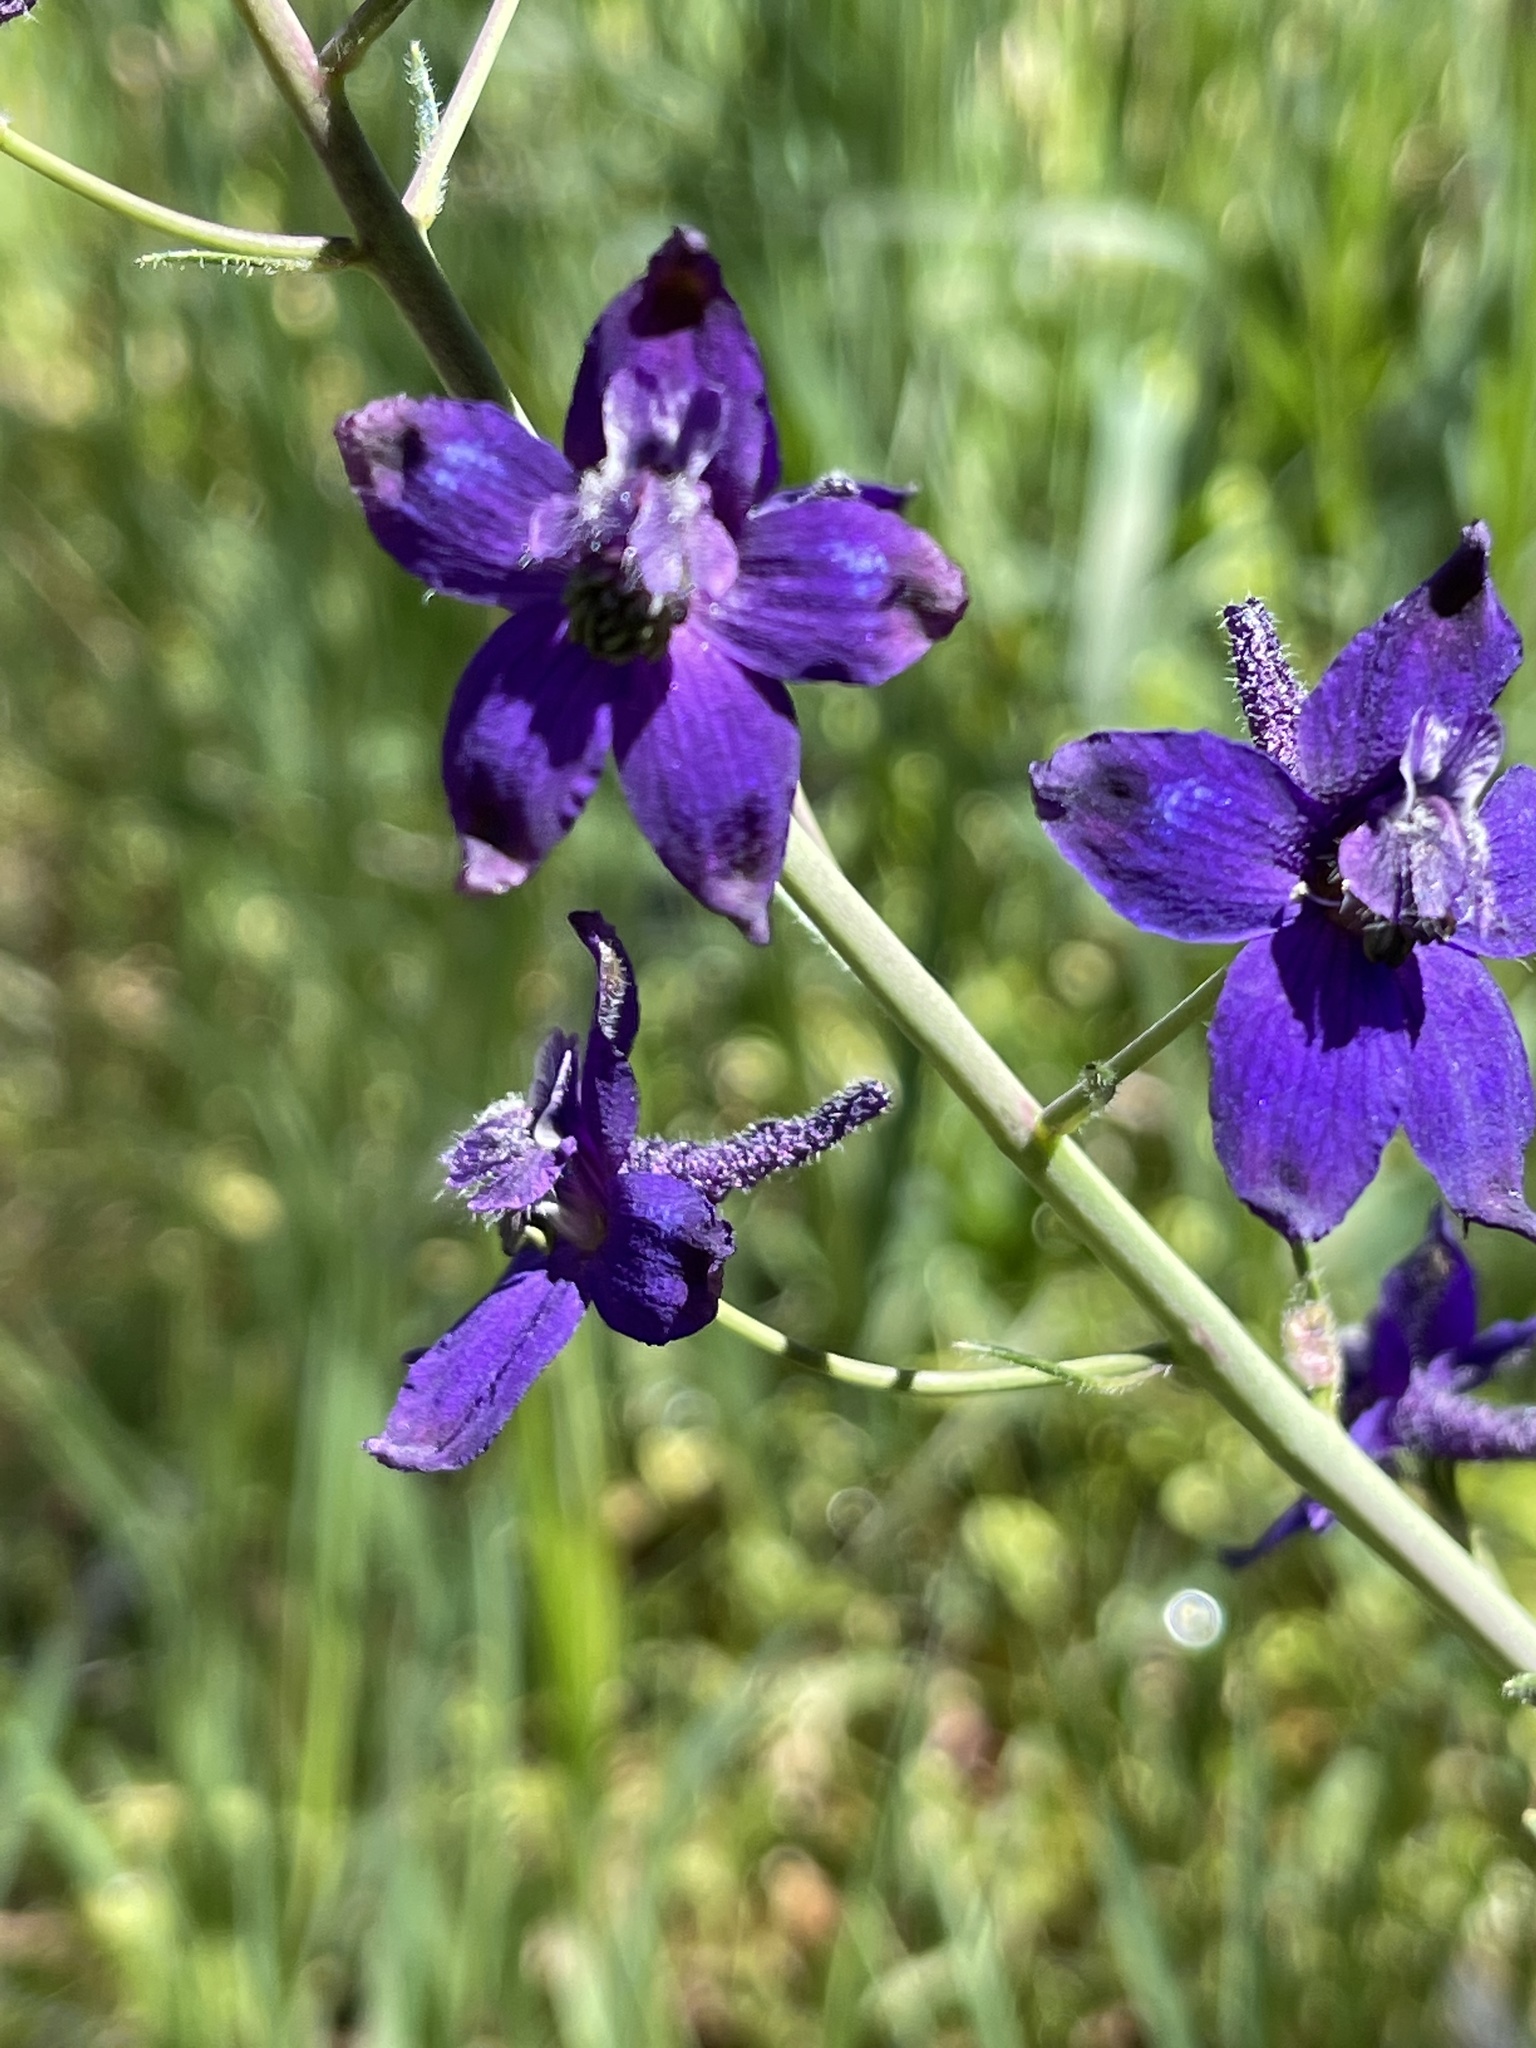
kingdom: Plantae
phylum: Tracheophyta
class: Magnoliopsida
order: Ranunculales
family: Ranunculaceae
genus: Delphinium
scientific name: Delphinium patens
